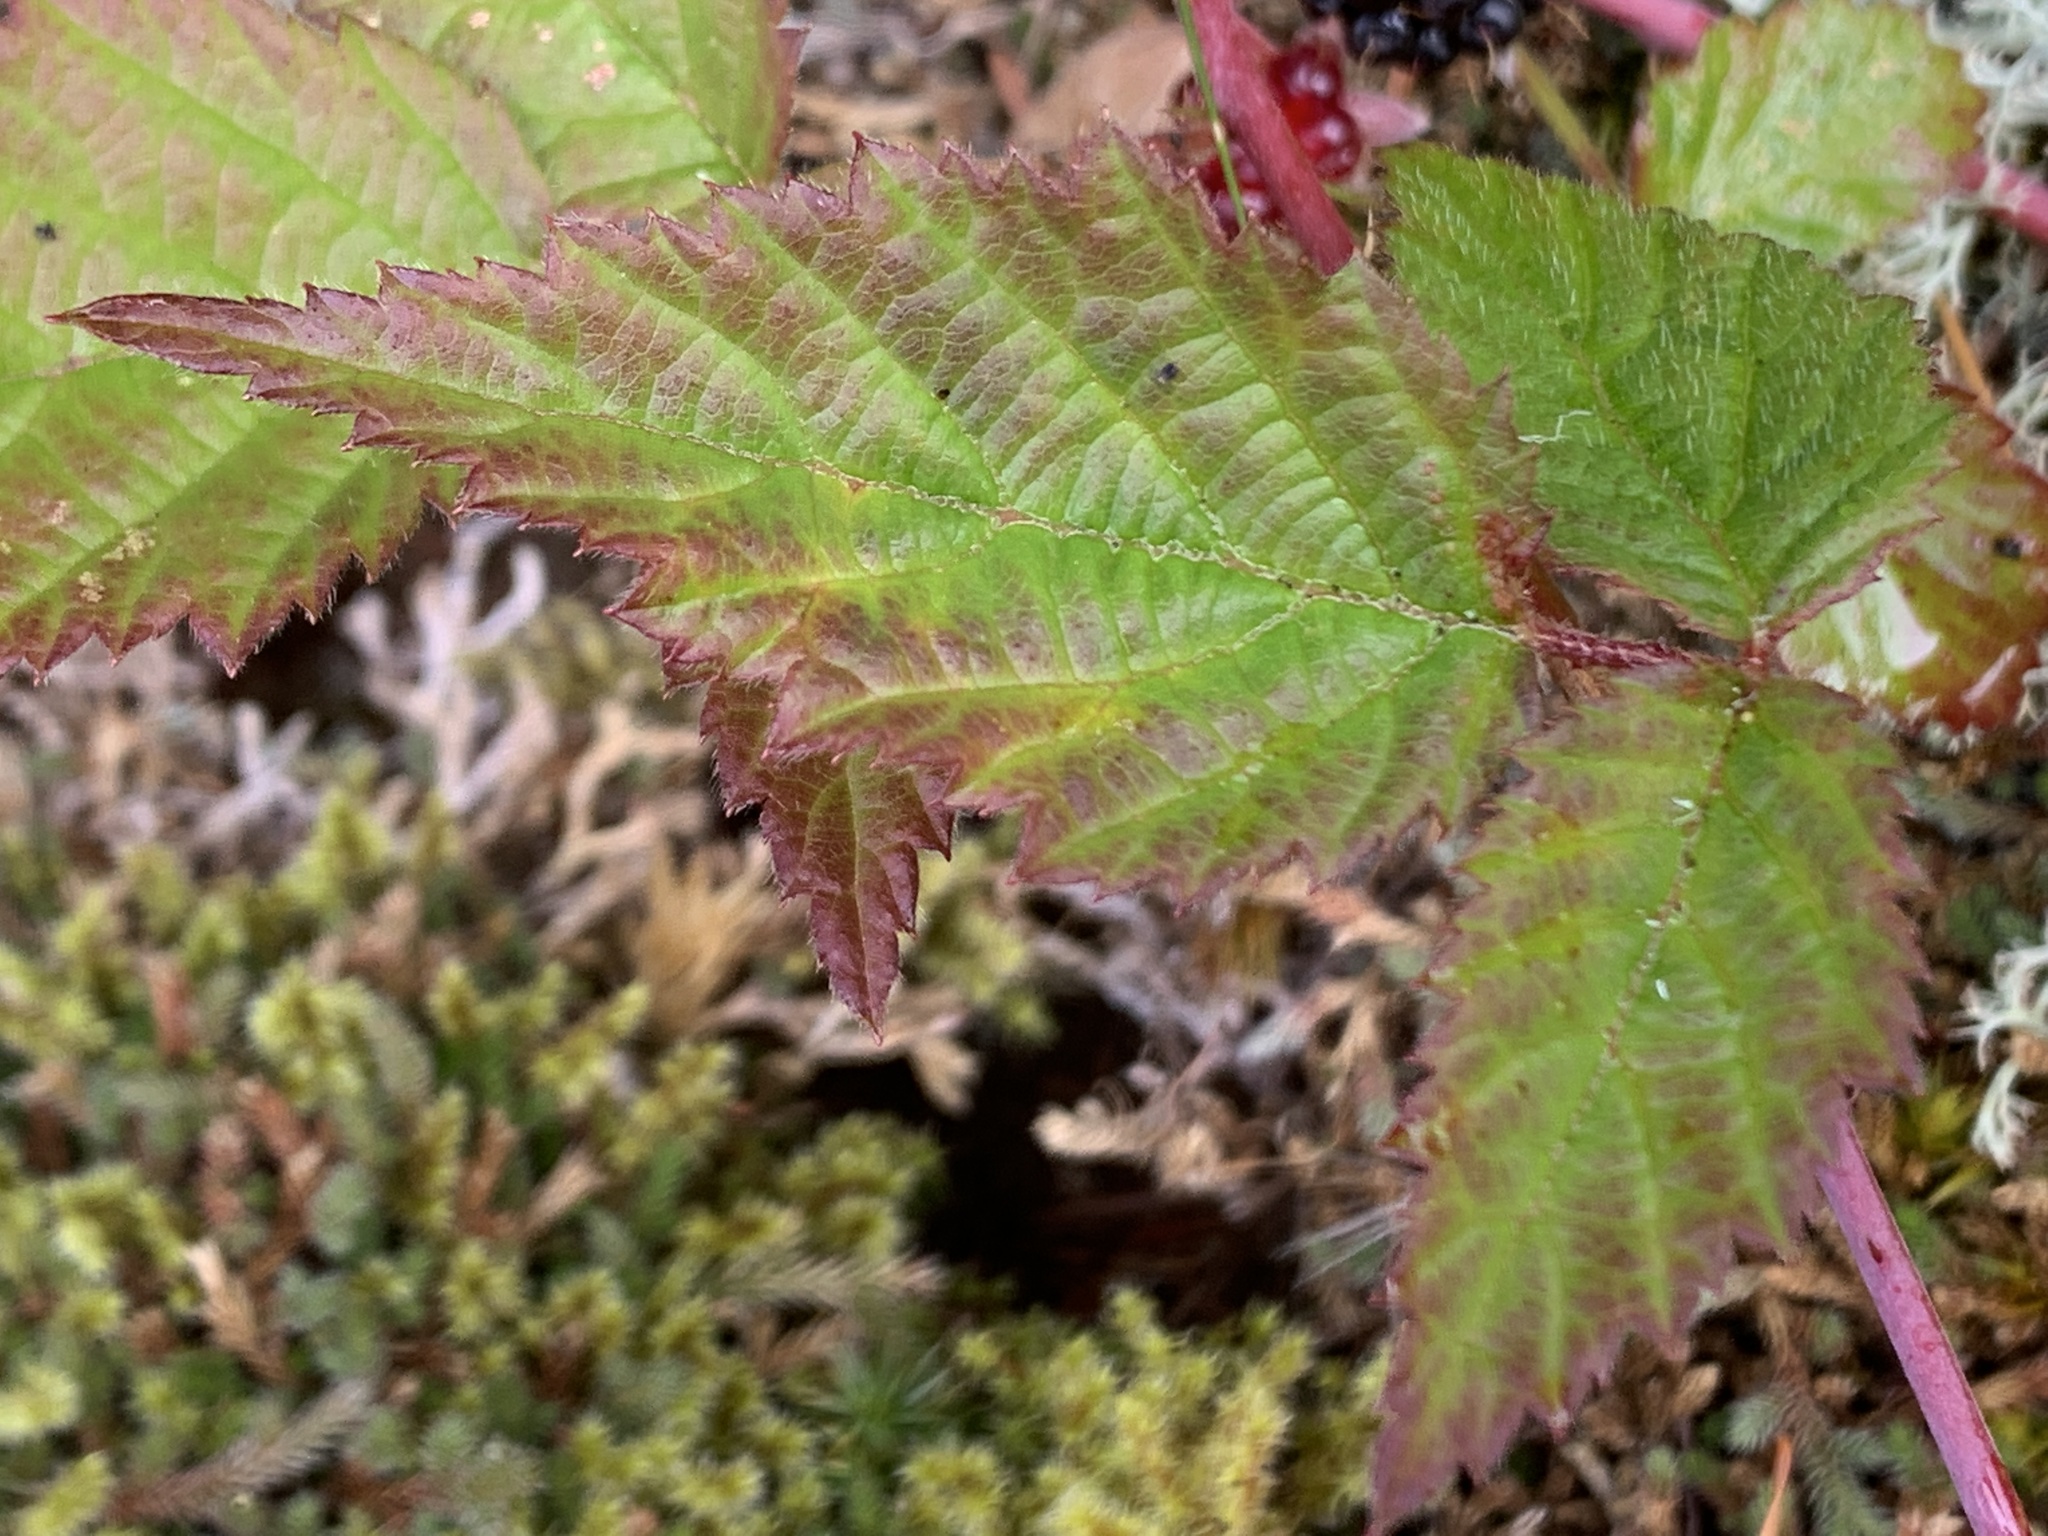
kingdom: Plantae
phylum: Tracheophyta
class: Magnoliopsida
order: Rosales
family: Rosaceae
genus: Rubus
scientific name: Rubus ursinus
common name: Pacific blackberry
